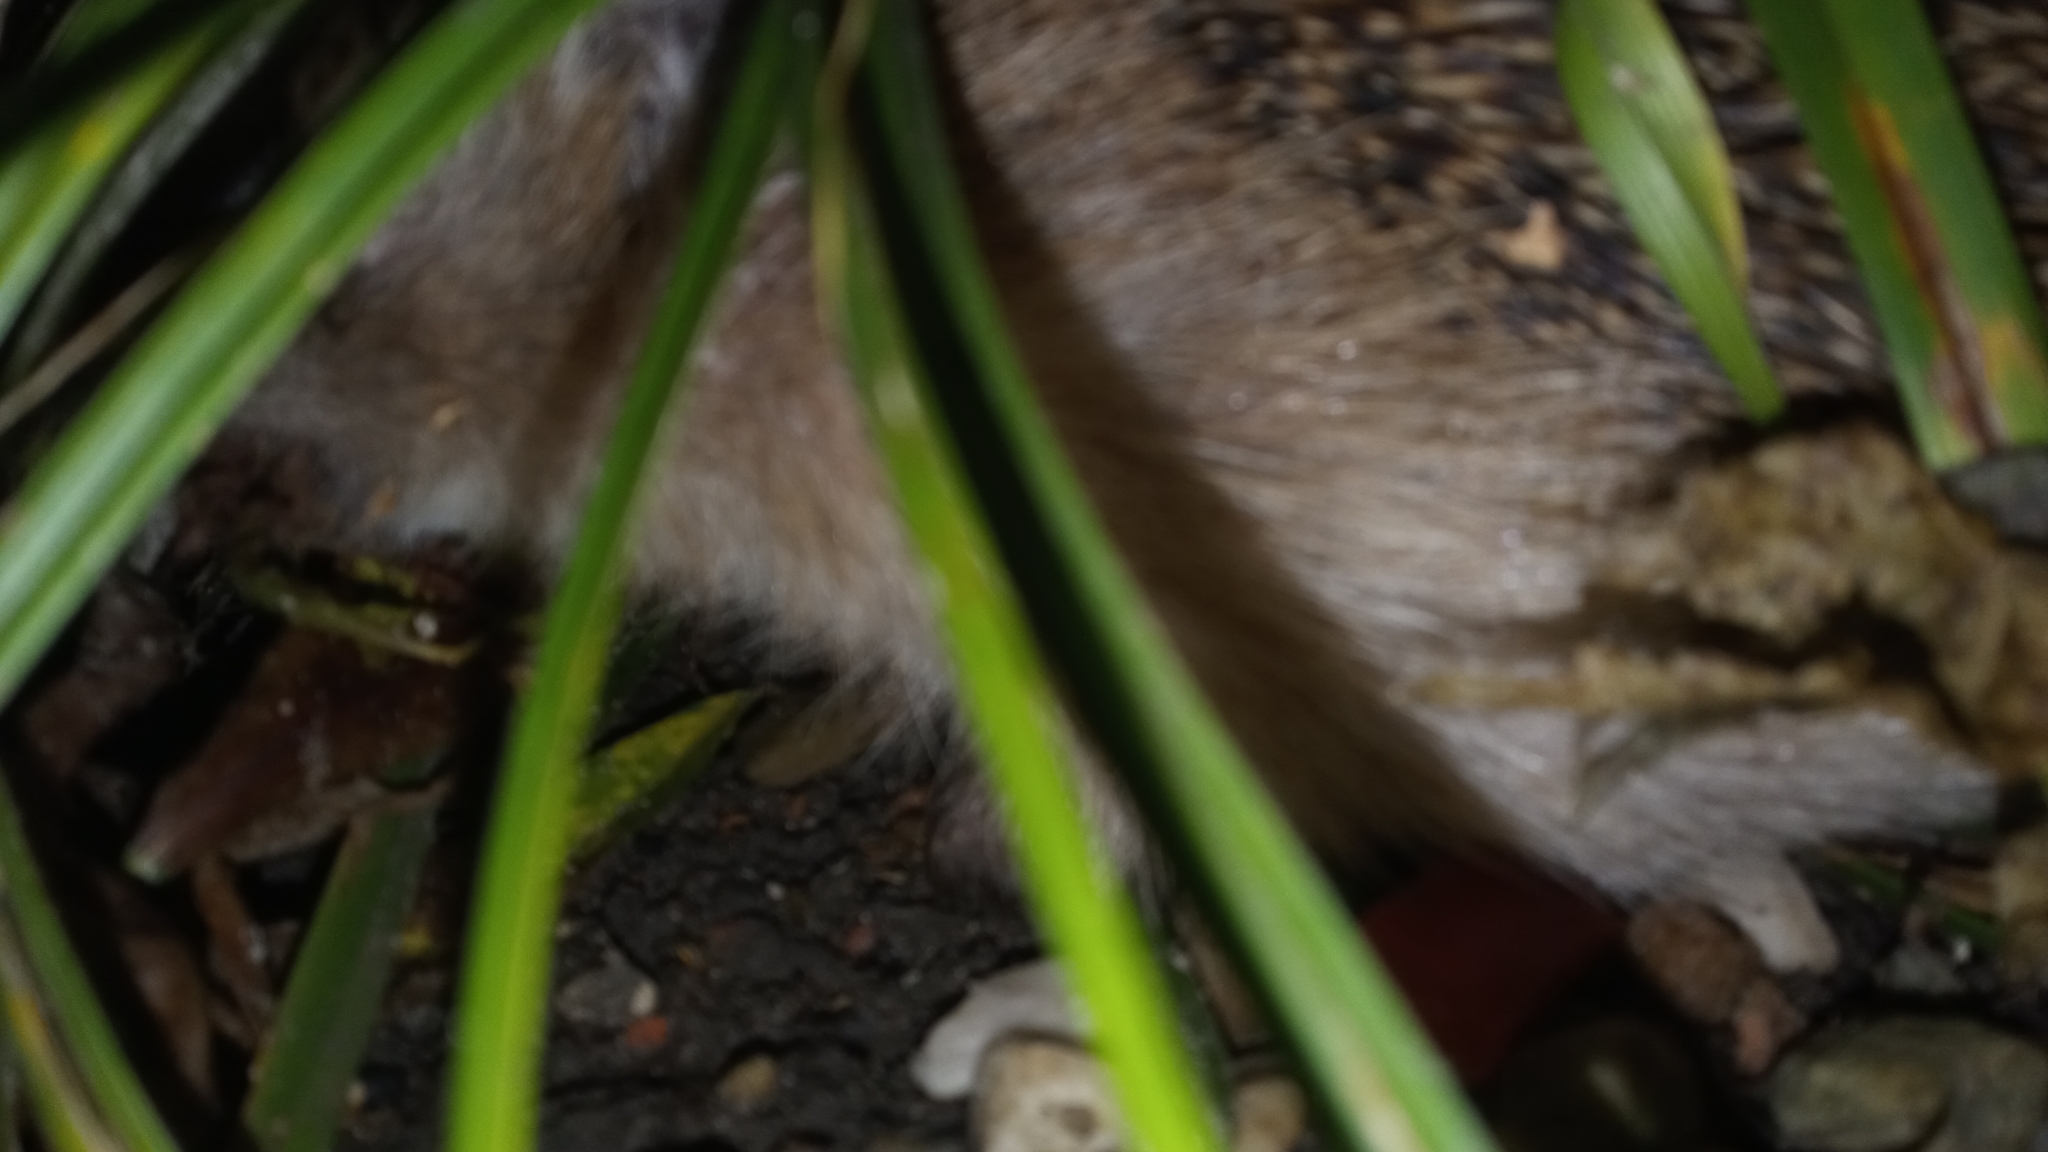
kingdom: Animalia
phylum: Chordata
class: Mammalia
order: Erinaceomorpha
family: Erinaceidae
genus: Erinaceus
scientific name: Erinaceus europaeus
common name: West european hedgehog
